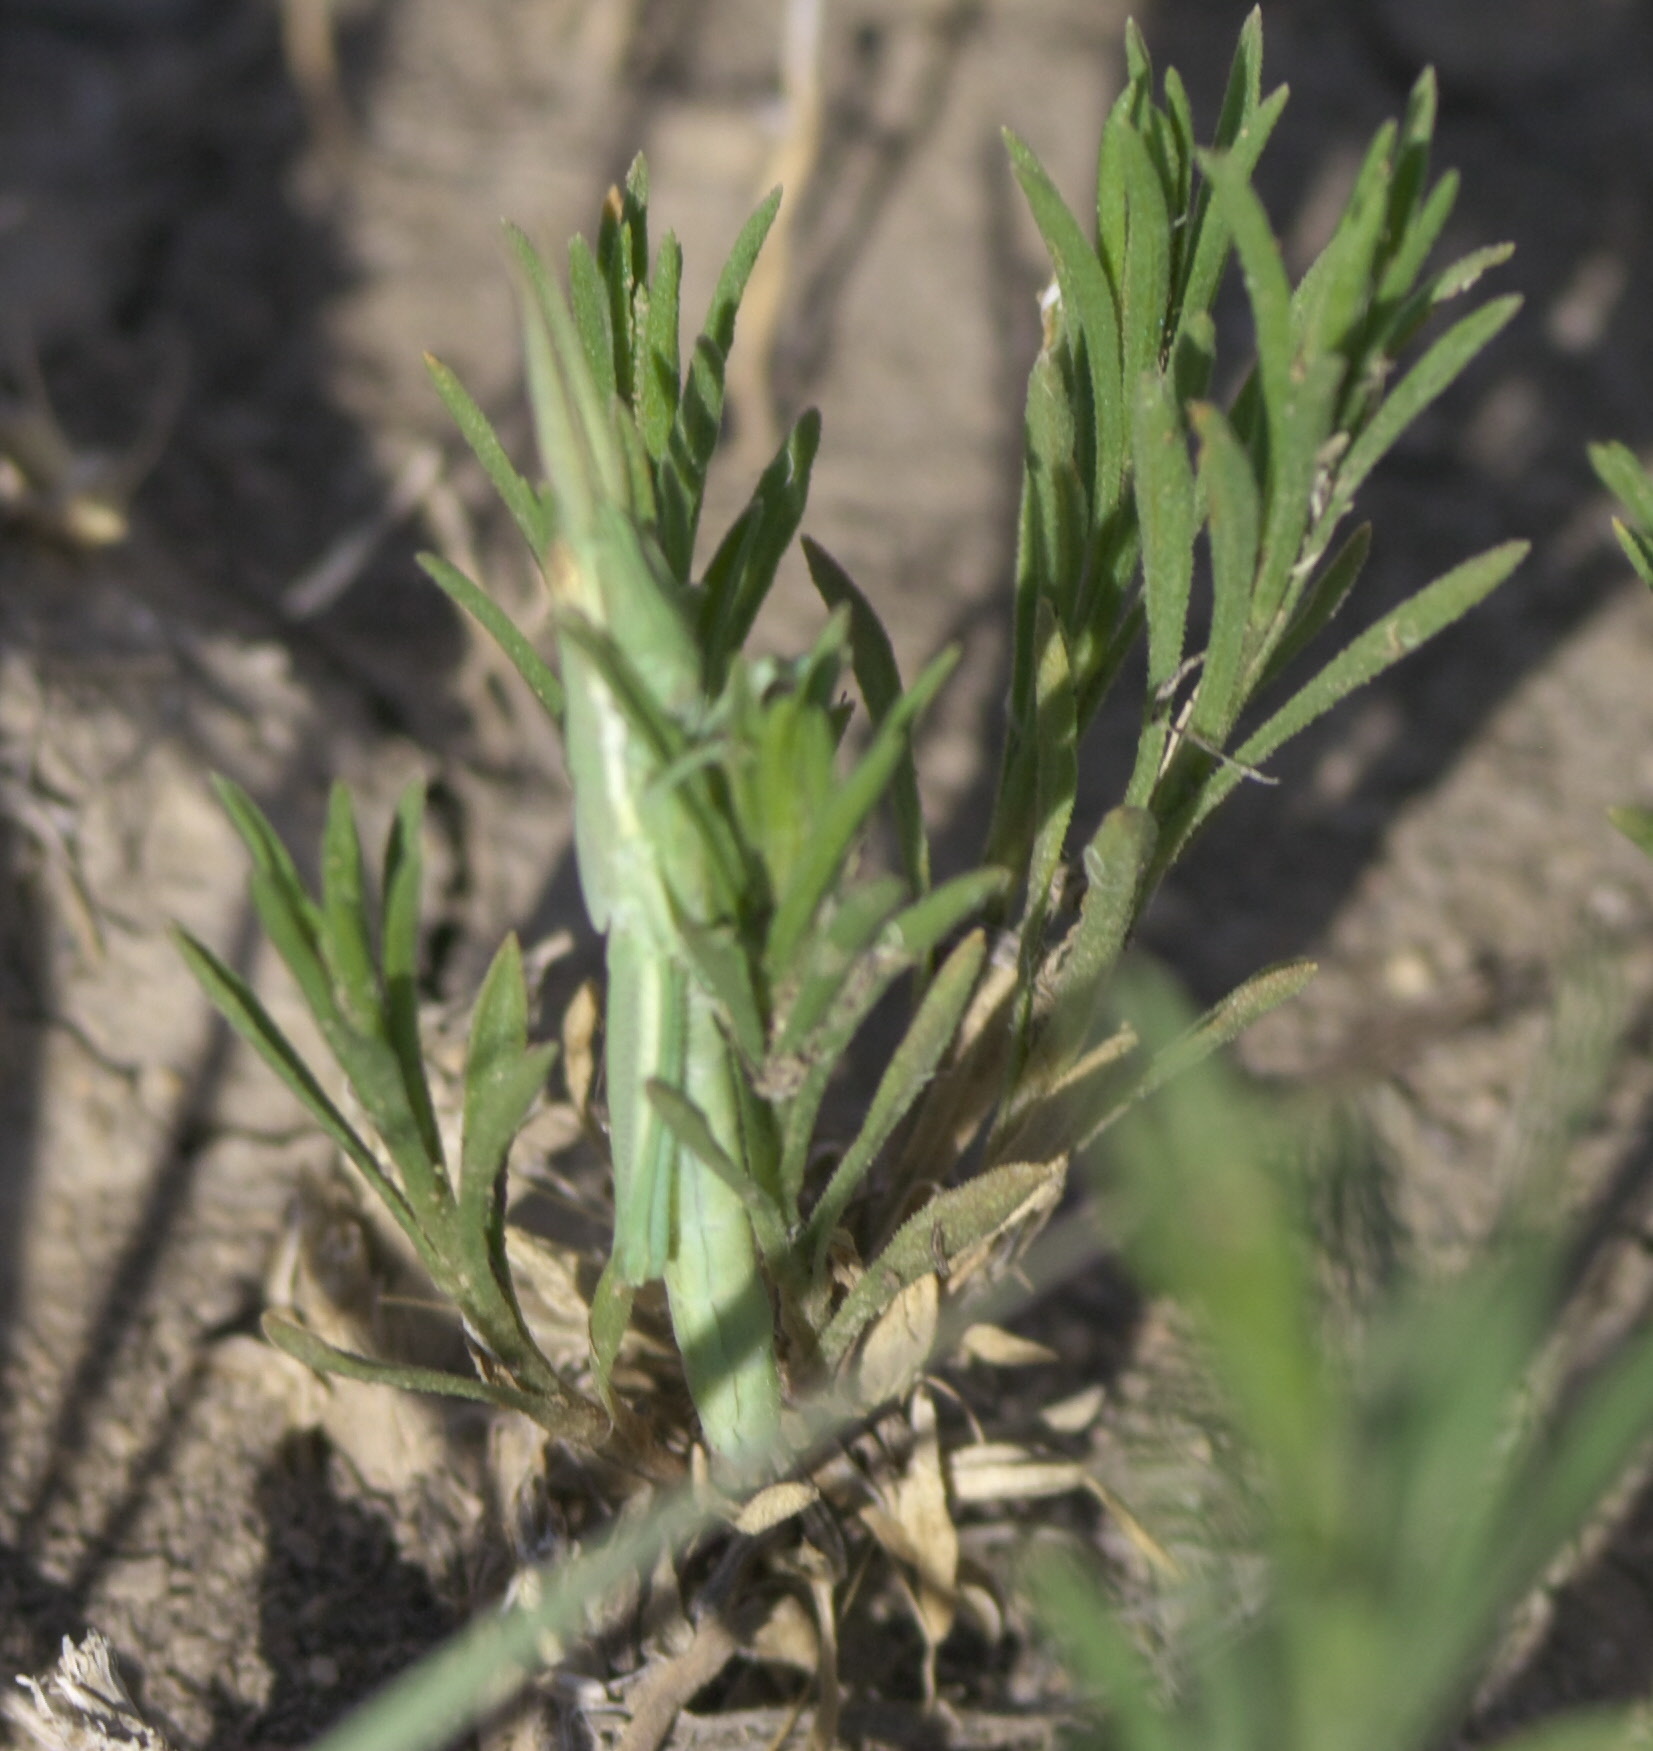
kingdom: Animalia
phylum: Arthropoda
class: Insecta
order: Orthoptera
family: Acrididae
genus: Paropomala
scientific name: Paropomala wyomingensis
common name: Wyoming toothpick grasshopper
